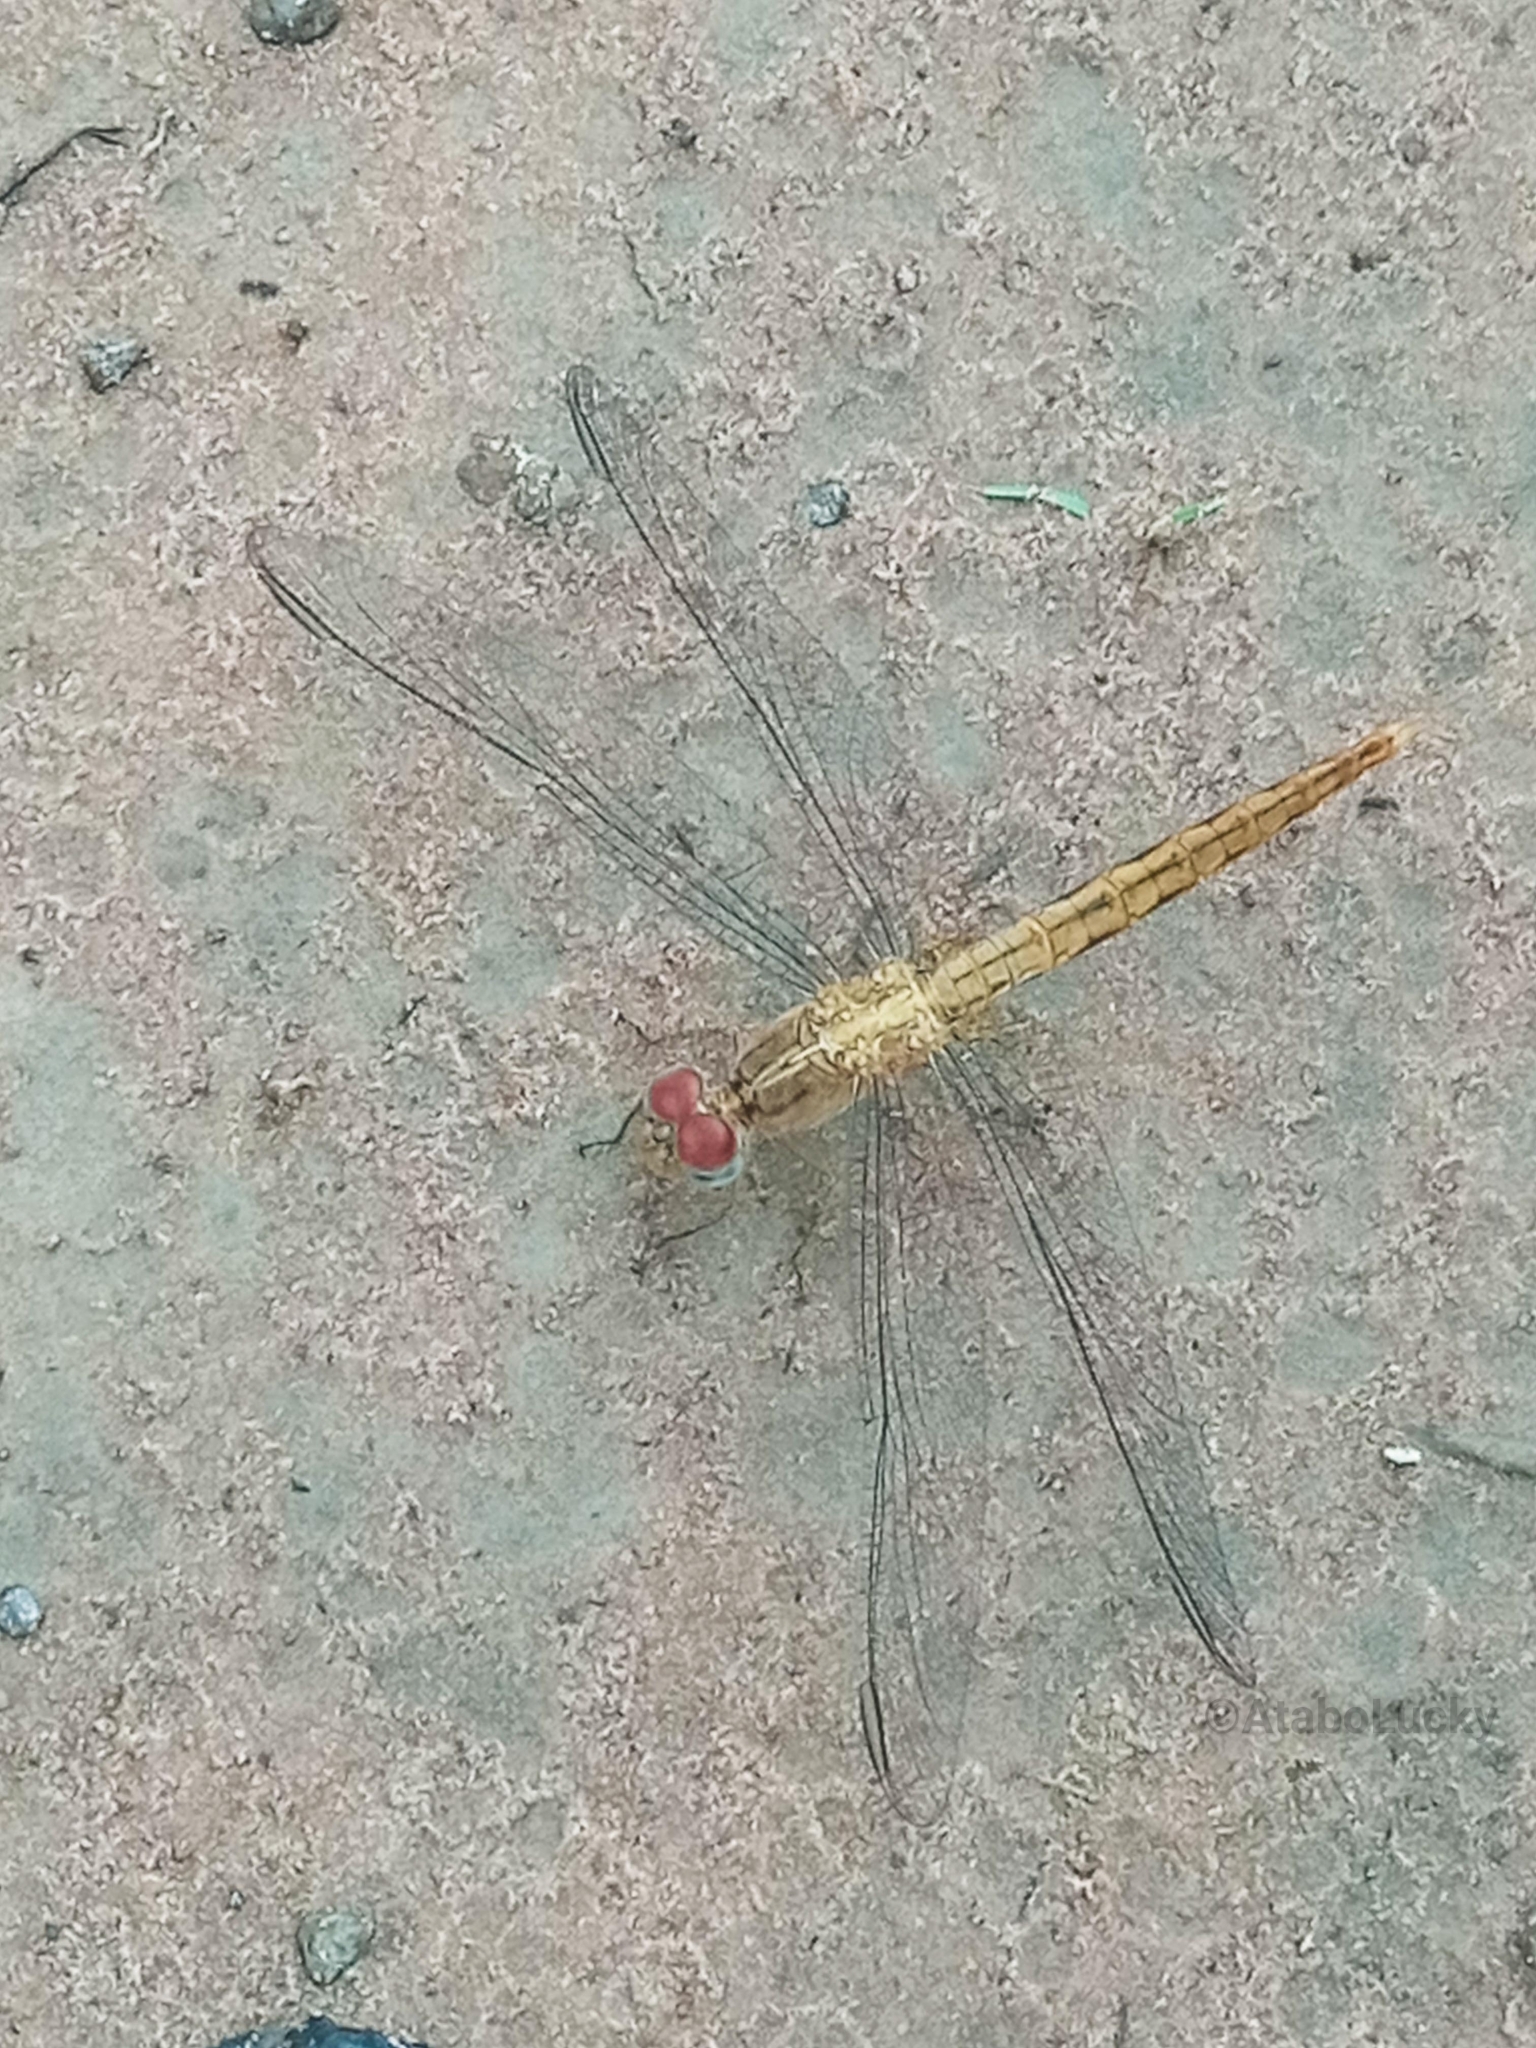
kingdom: Animalia
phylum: Arthropoda
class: Insecta
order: Odonata
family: Libellulidae
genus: Crocothemis
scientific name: Crocothemis divisa
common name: Divisa scarlet
